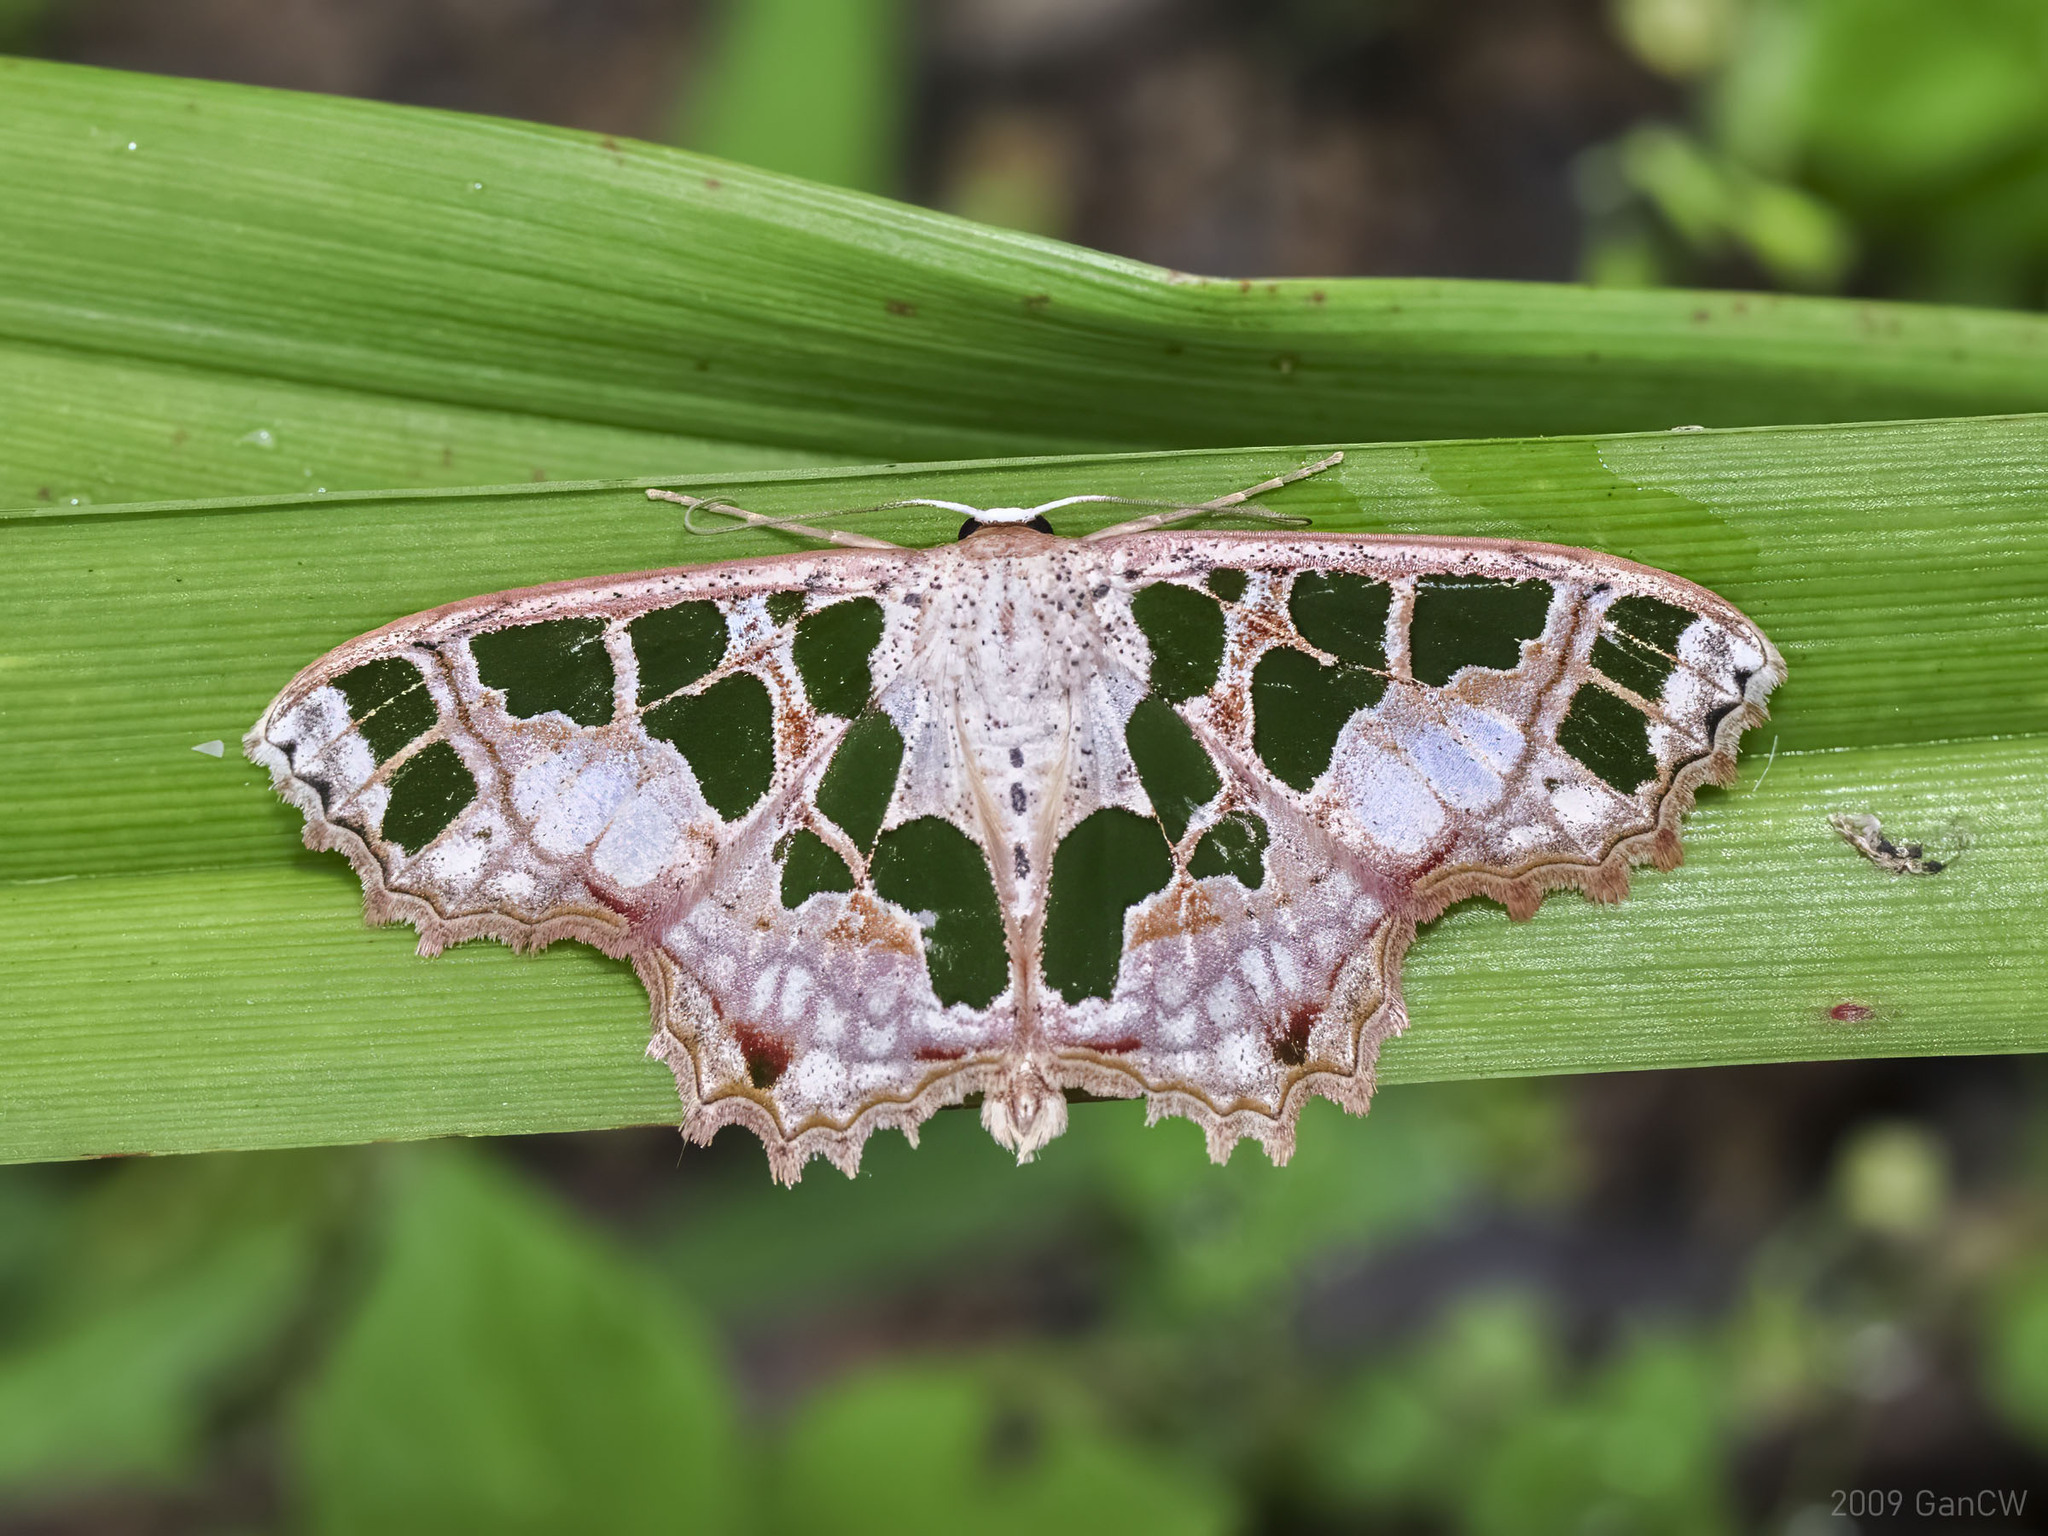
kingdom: Animalia
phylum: Arthropoda
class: Insecta
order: Lepidoptera
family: Geometridae
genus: Scopula
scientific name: Scopula divisaria
